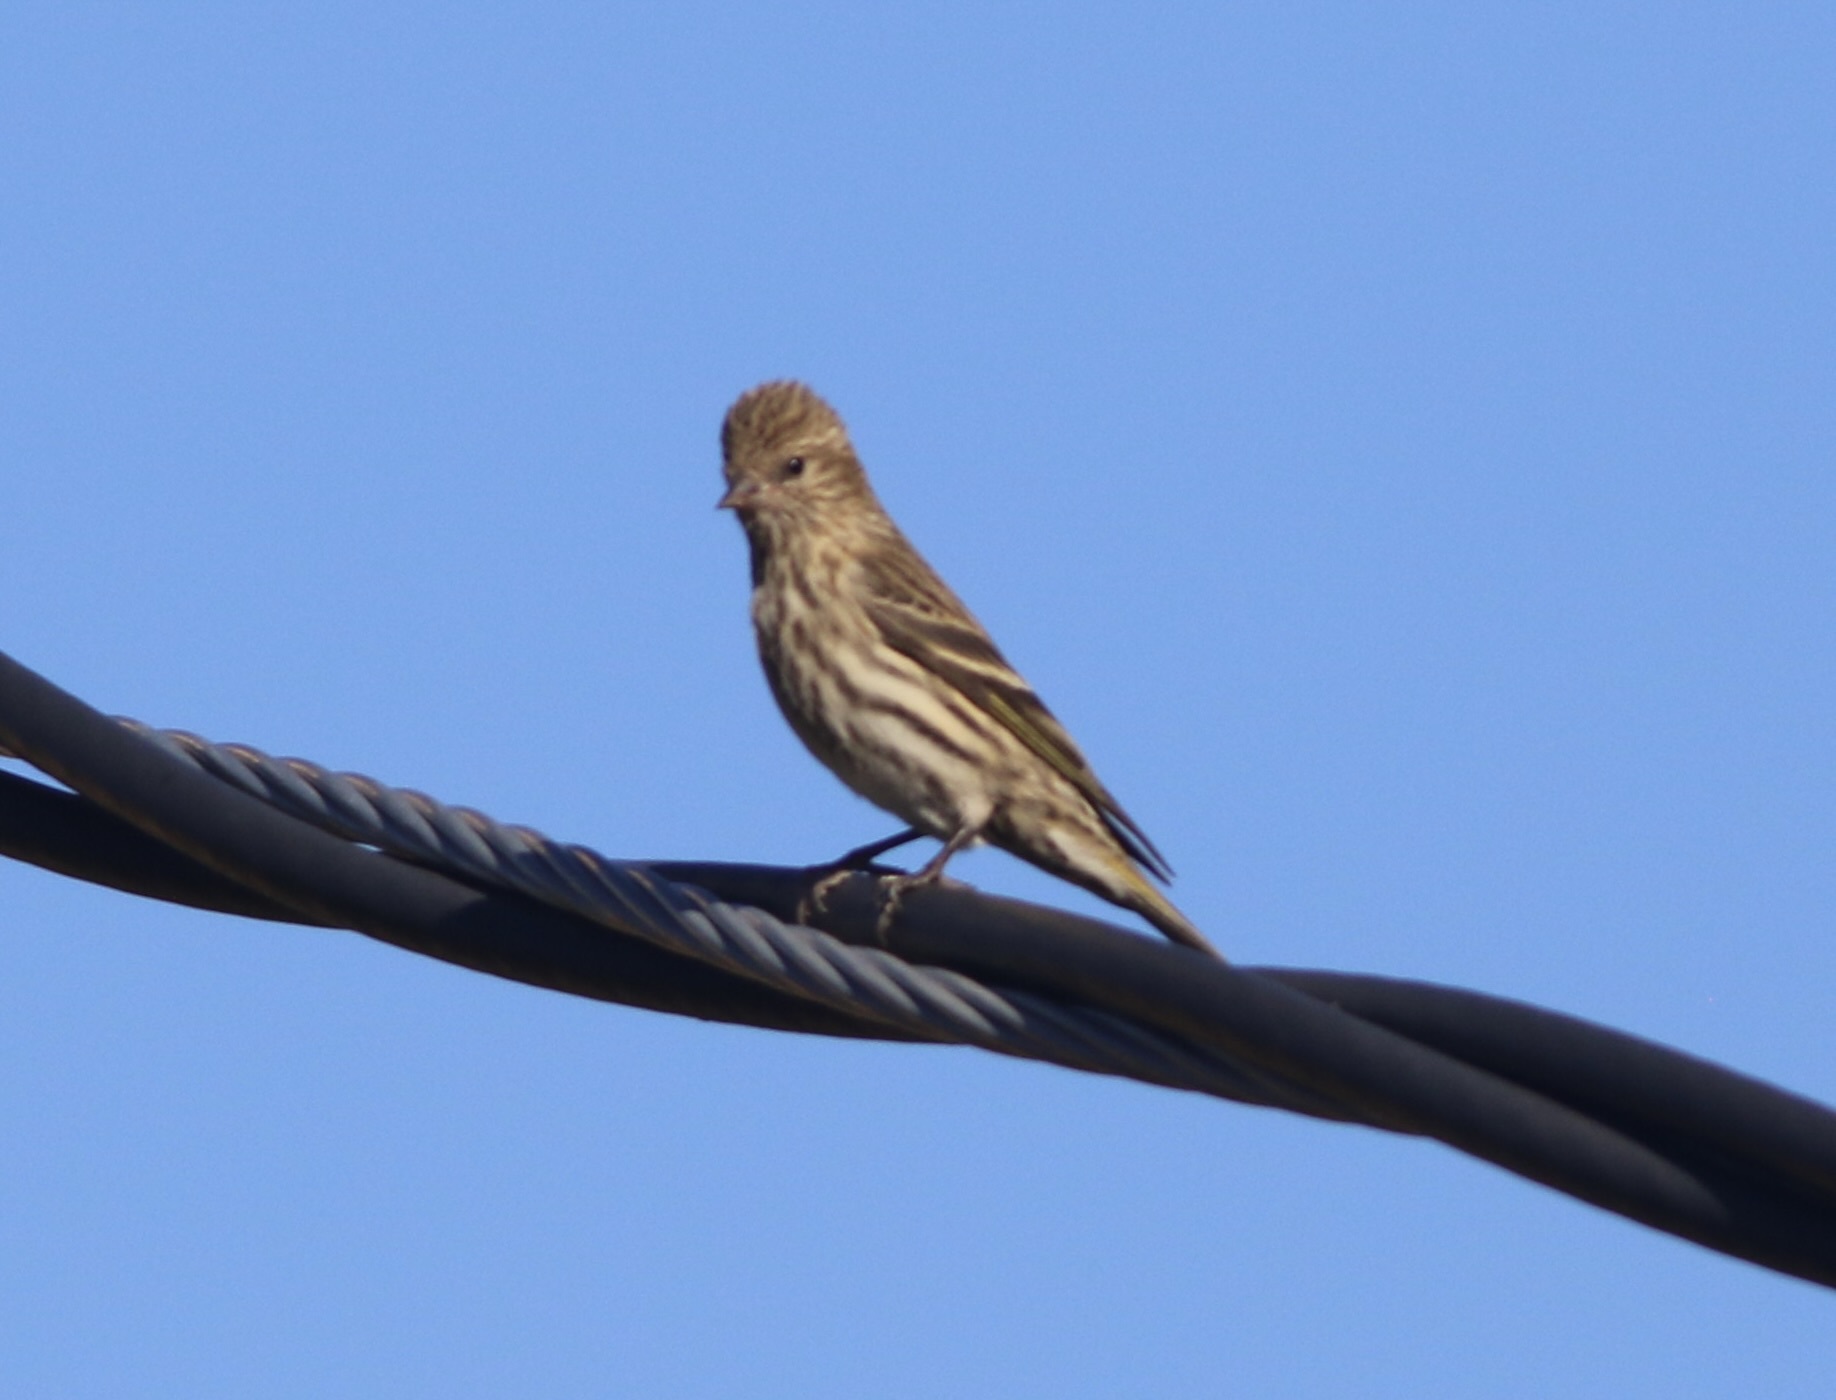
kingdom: Animalia
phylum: Chordata
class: Aves
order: Passeriformes
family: Fringillidae
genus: Spinus
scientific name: Spinus pinus
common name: Pine siskin
